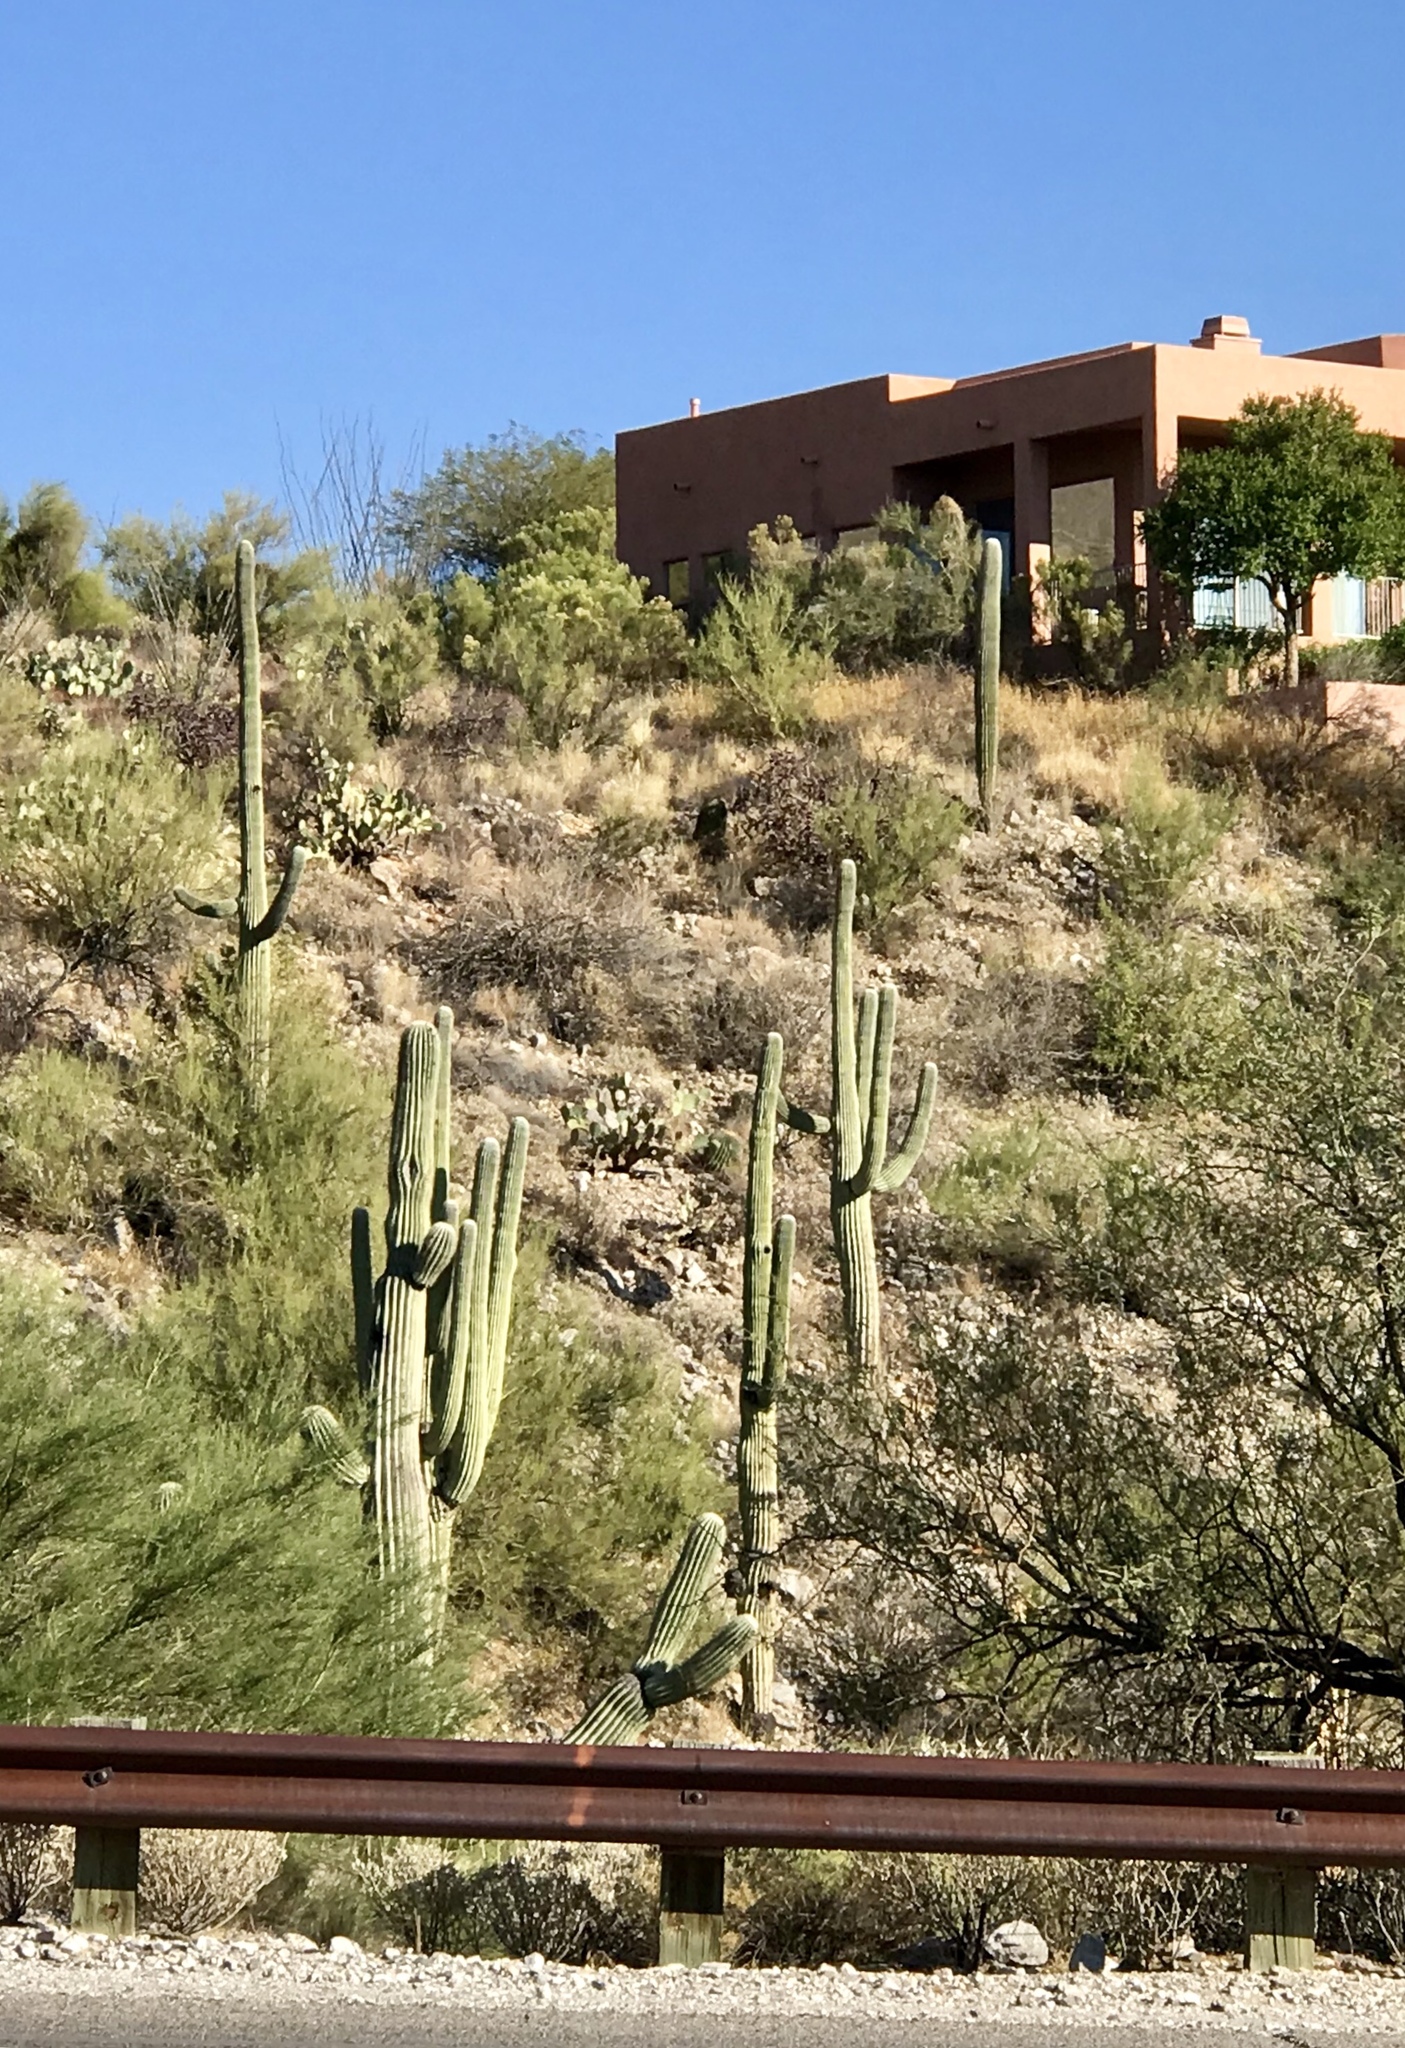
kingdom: Plantae
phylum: Tracheophyta
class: Magnoliopsida
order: Caryophyllales
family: Cactaceae
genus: Carnegiea
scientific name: Carnegiea gigantea
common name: Saguaro
